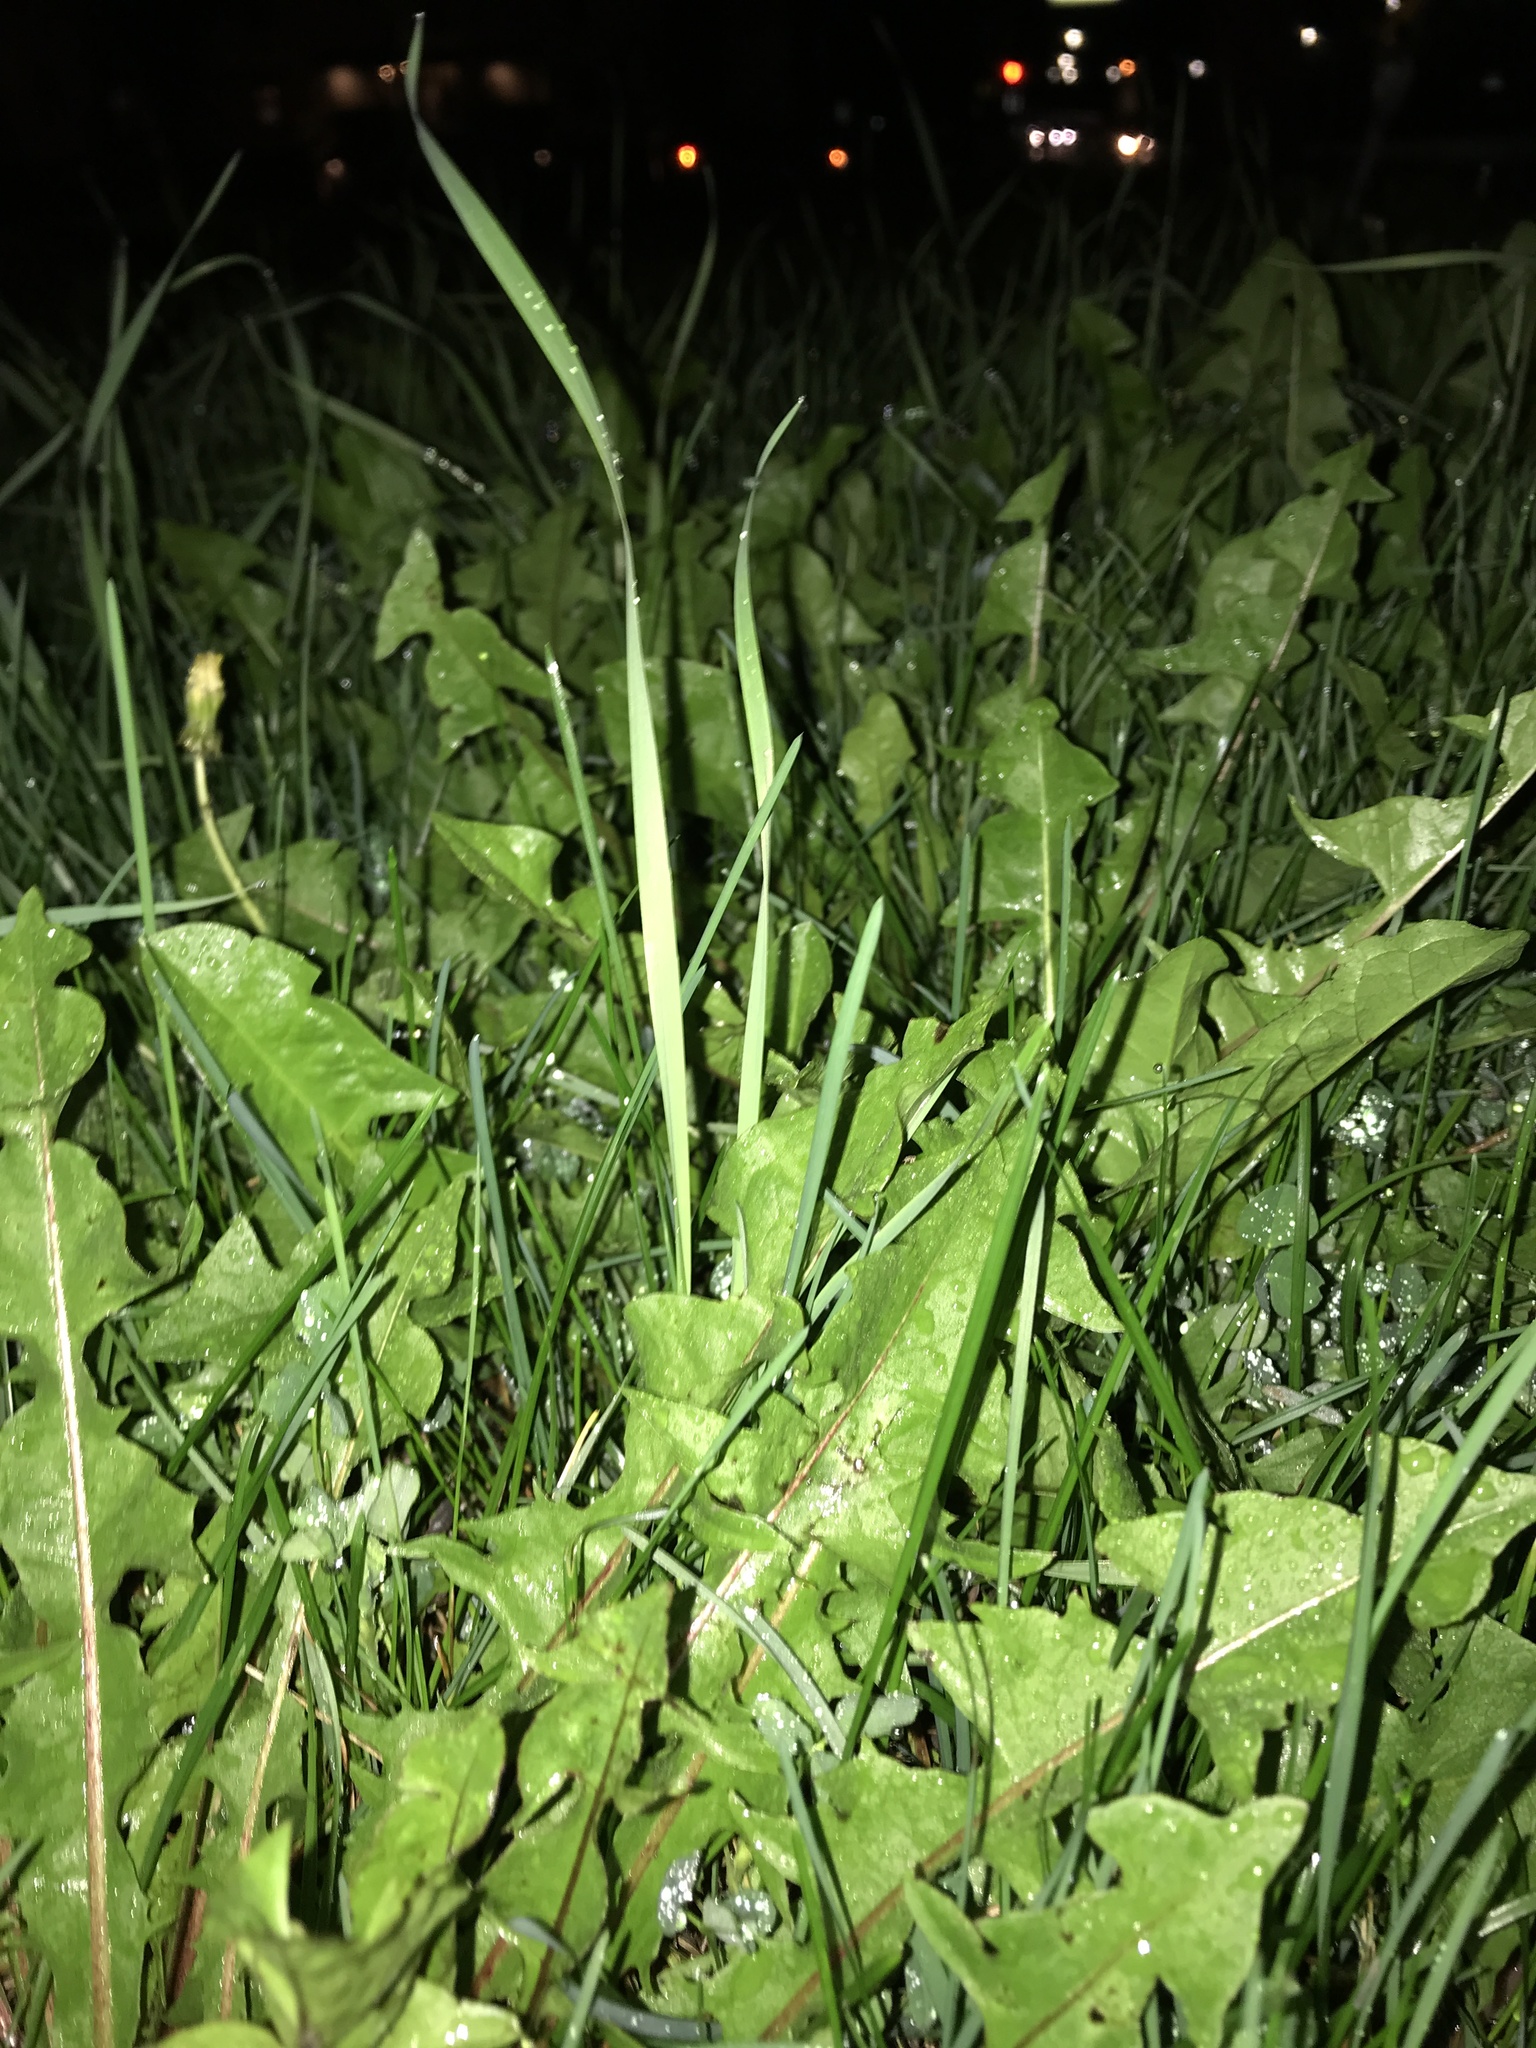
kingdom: Plantae
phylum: Tracheophyta
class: Magnoliopsida
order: Asterales
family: Asteraceae
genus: Taraxacum
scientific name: Taraxacum officinale
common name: Common dandelion
